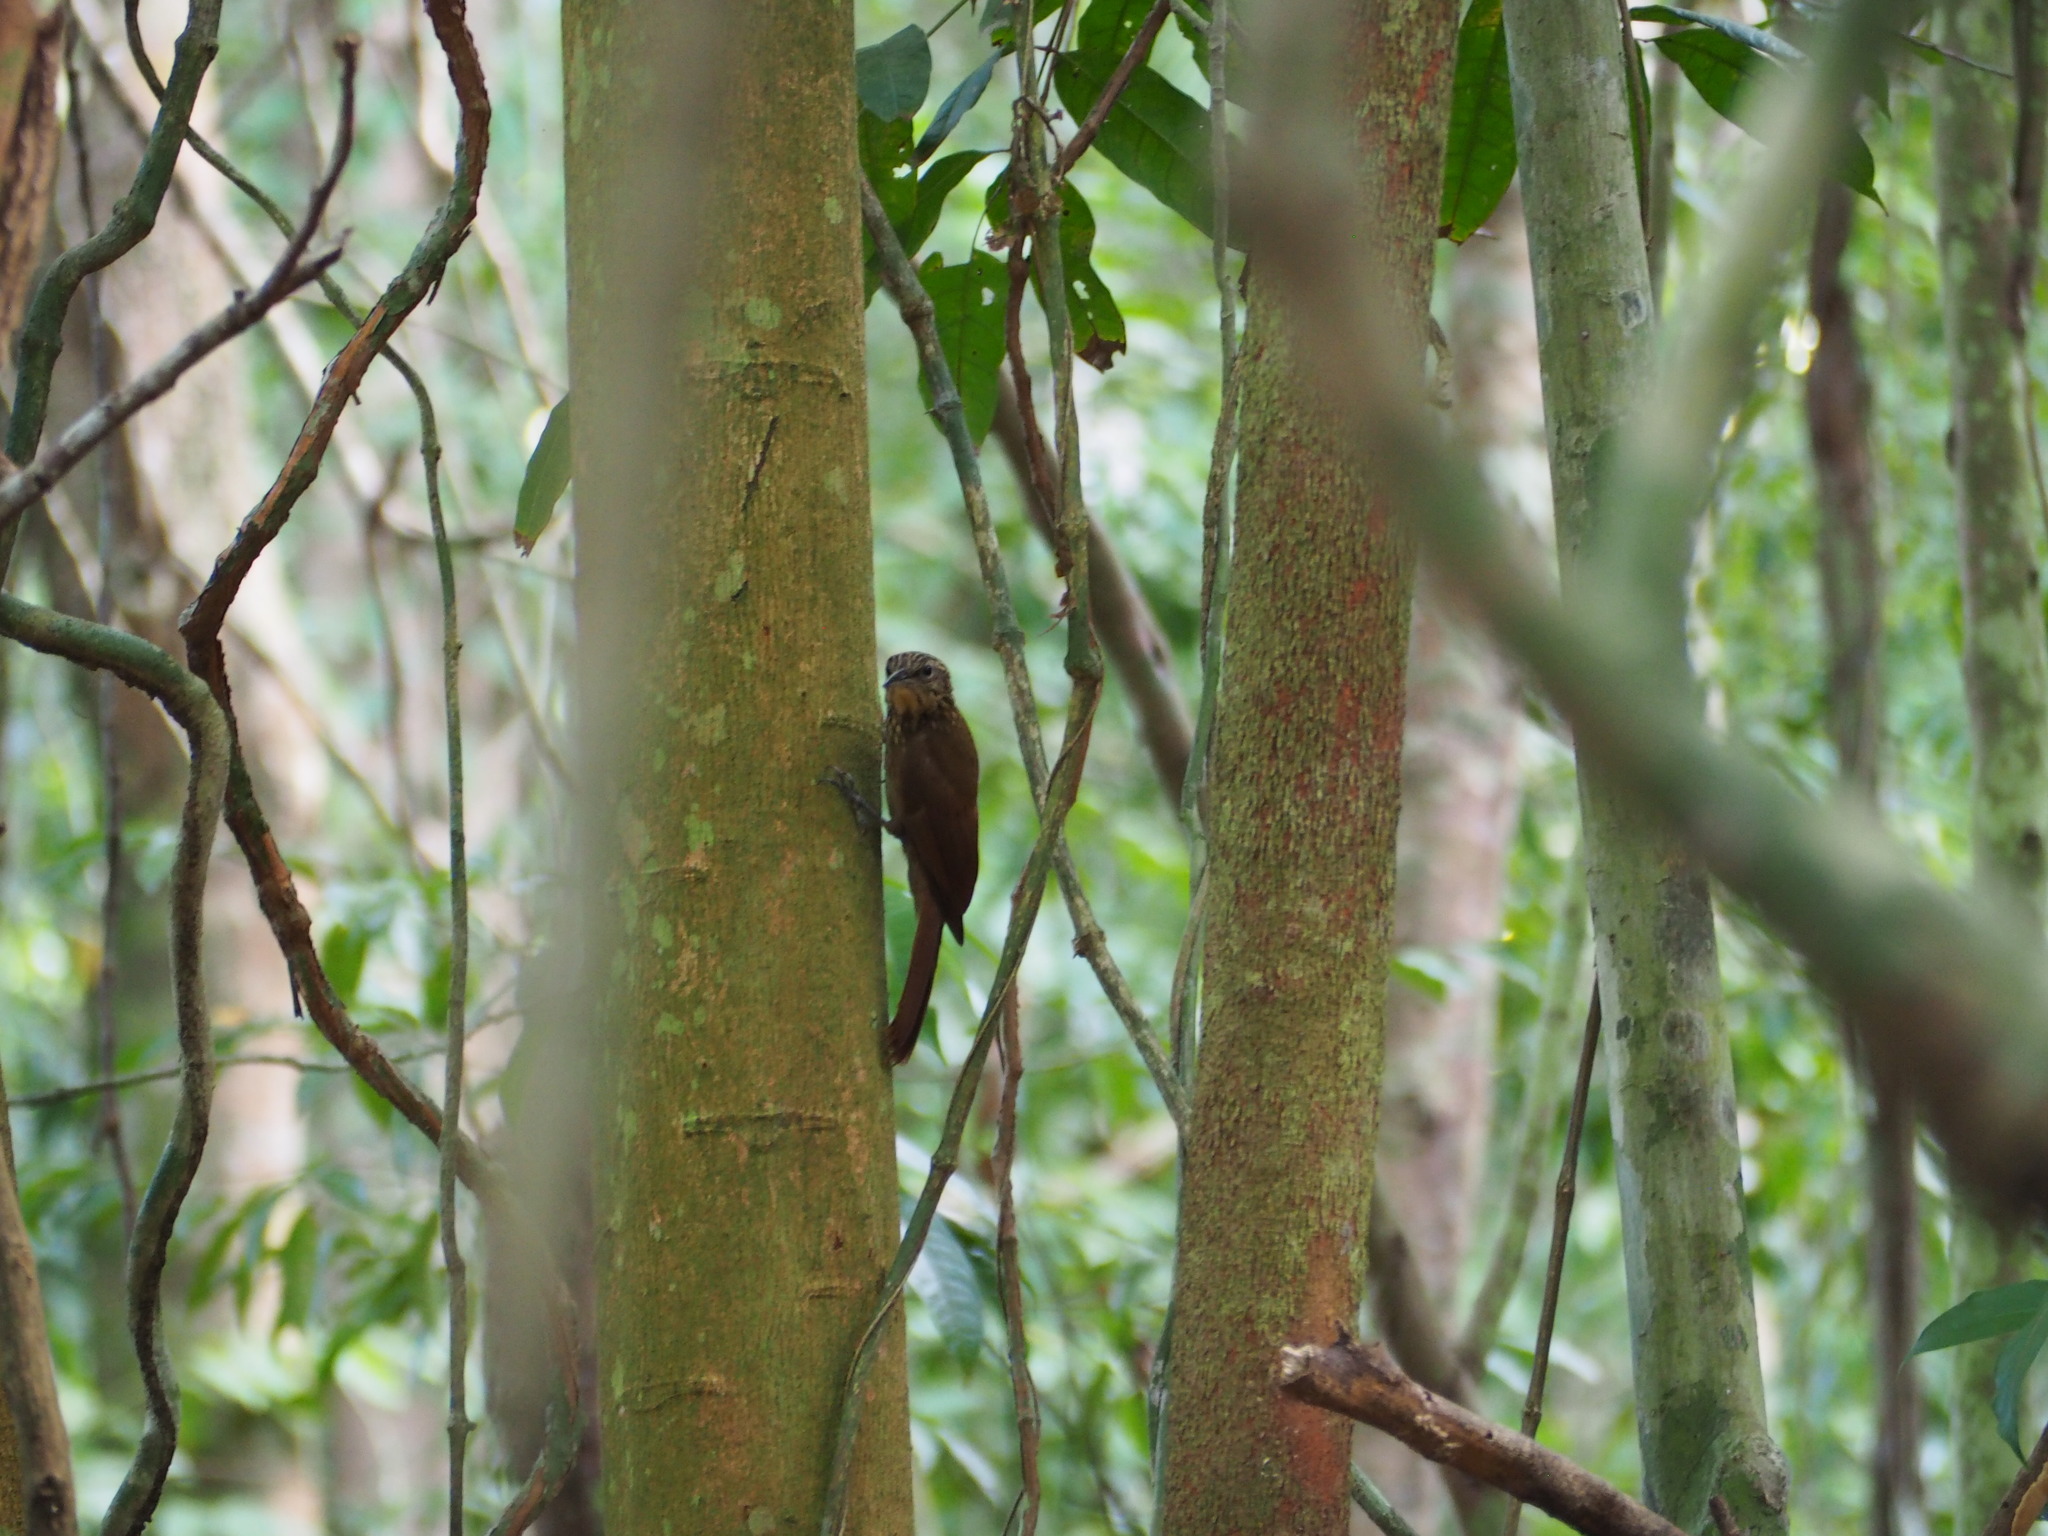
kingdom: Animalia
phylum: Chordata
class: Aves
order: Passeriformes
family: Furnariidae
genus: Xiphorhynchus
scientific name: Xiphorhynchus susurrans
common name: Cocoa woodcreeper
